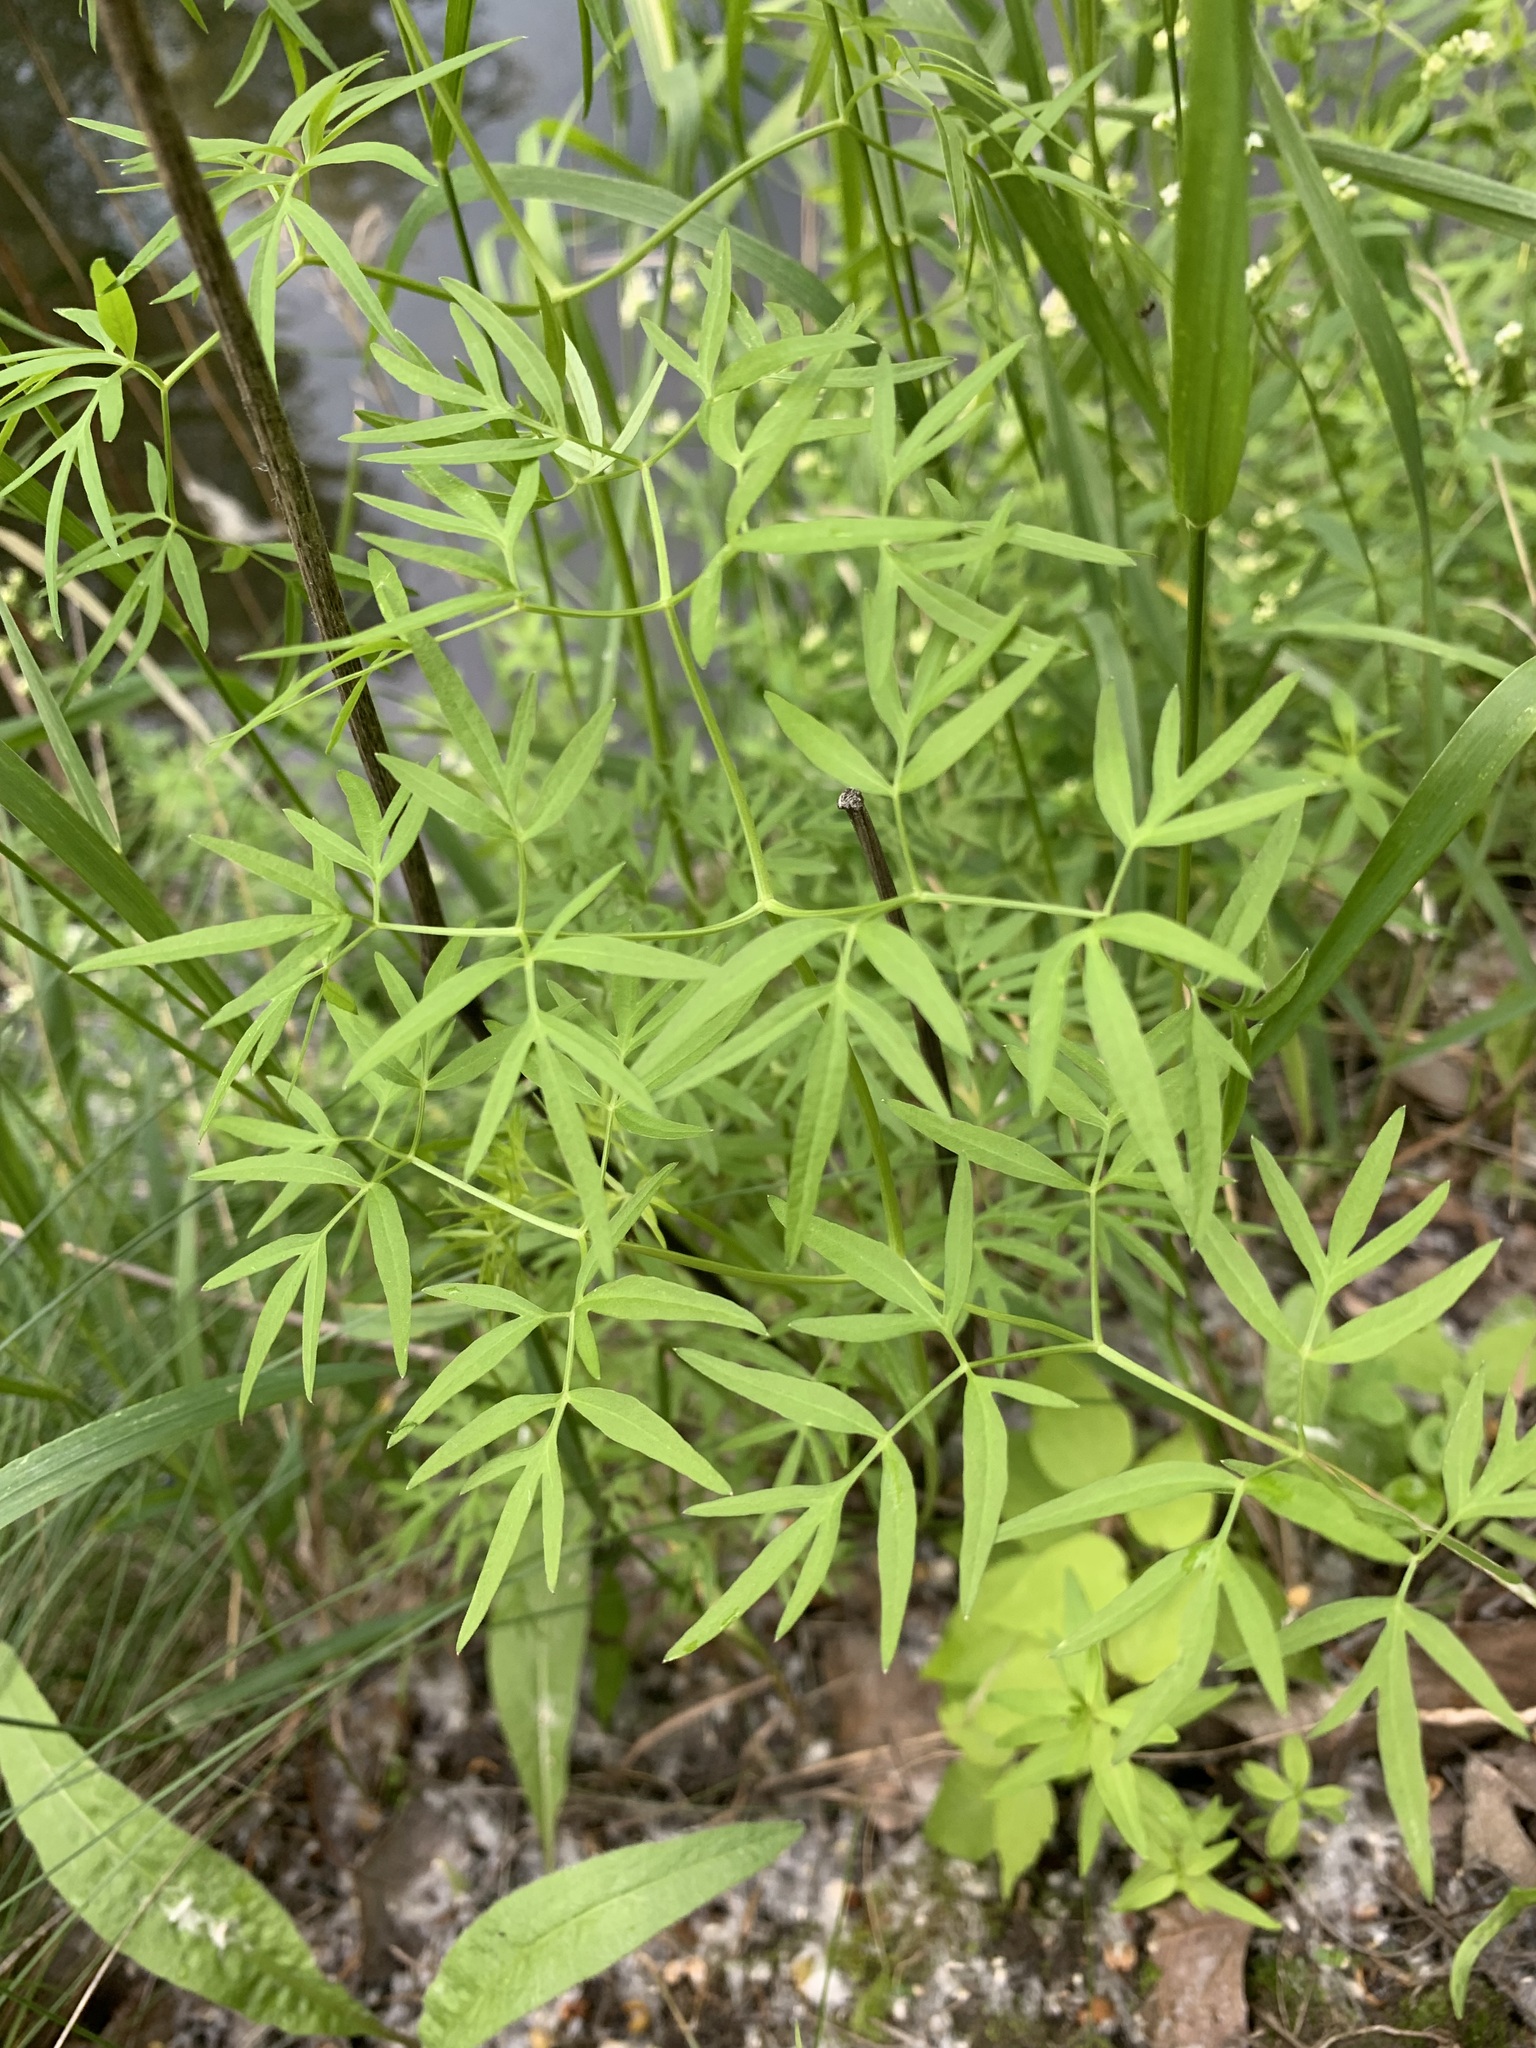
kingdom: Plantae
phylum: Tracheophyta
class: Magnoliopsida
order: Apiales
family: Apiaceae
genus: Cenolophium
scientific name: Cenolophium fischeri
